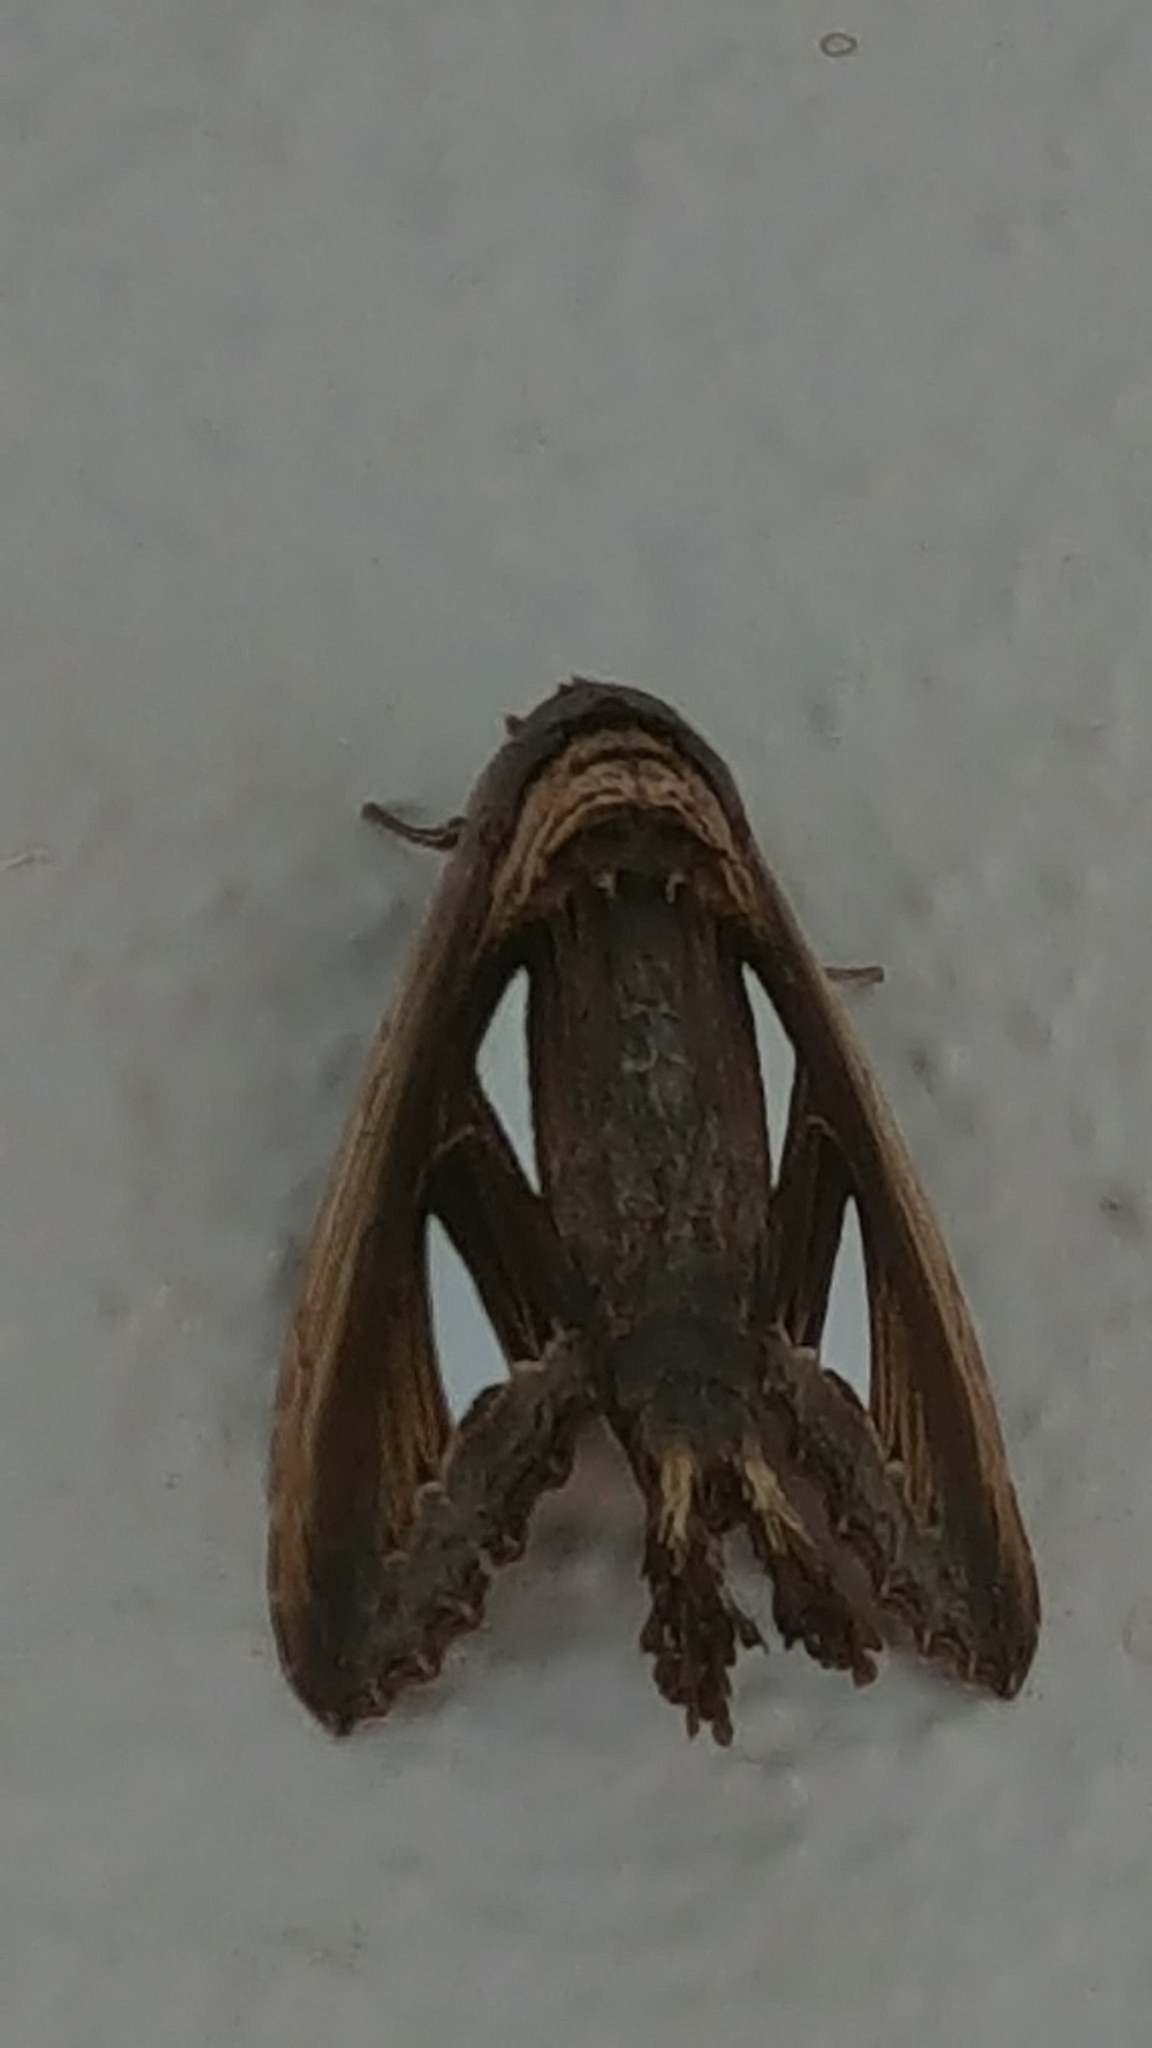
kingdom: Animalia
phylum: Arthropoda
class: Insecta
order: Lepidoptera
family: Notodontidae
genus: Tarsolepis
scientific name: Tarsolepis remicauda
